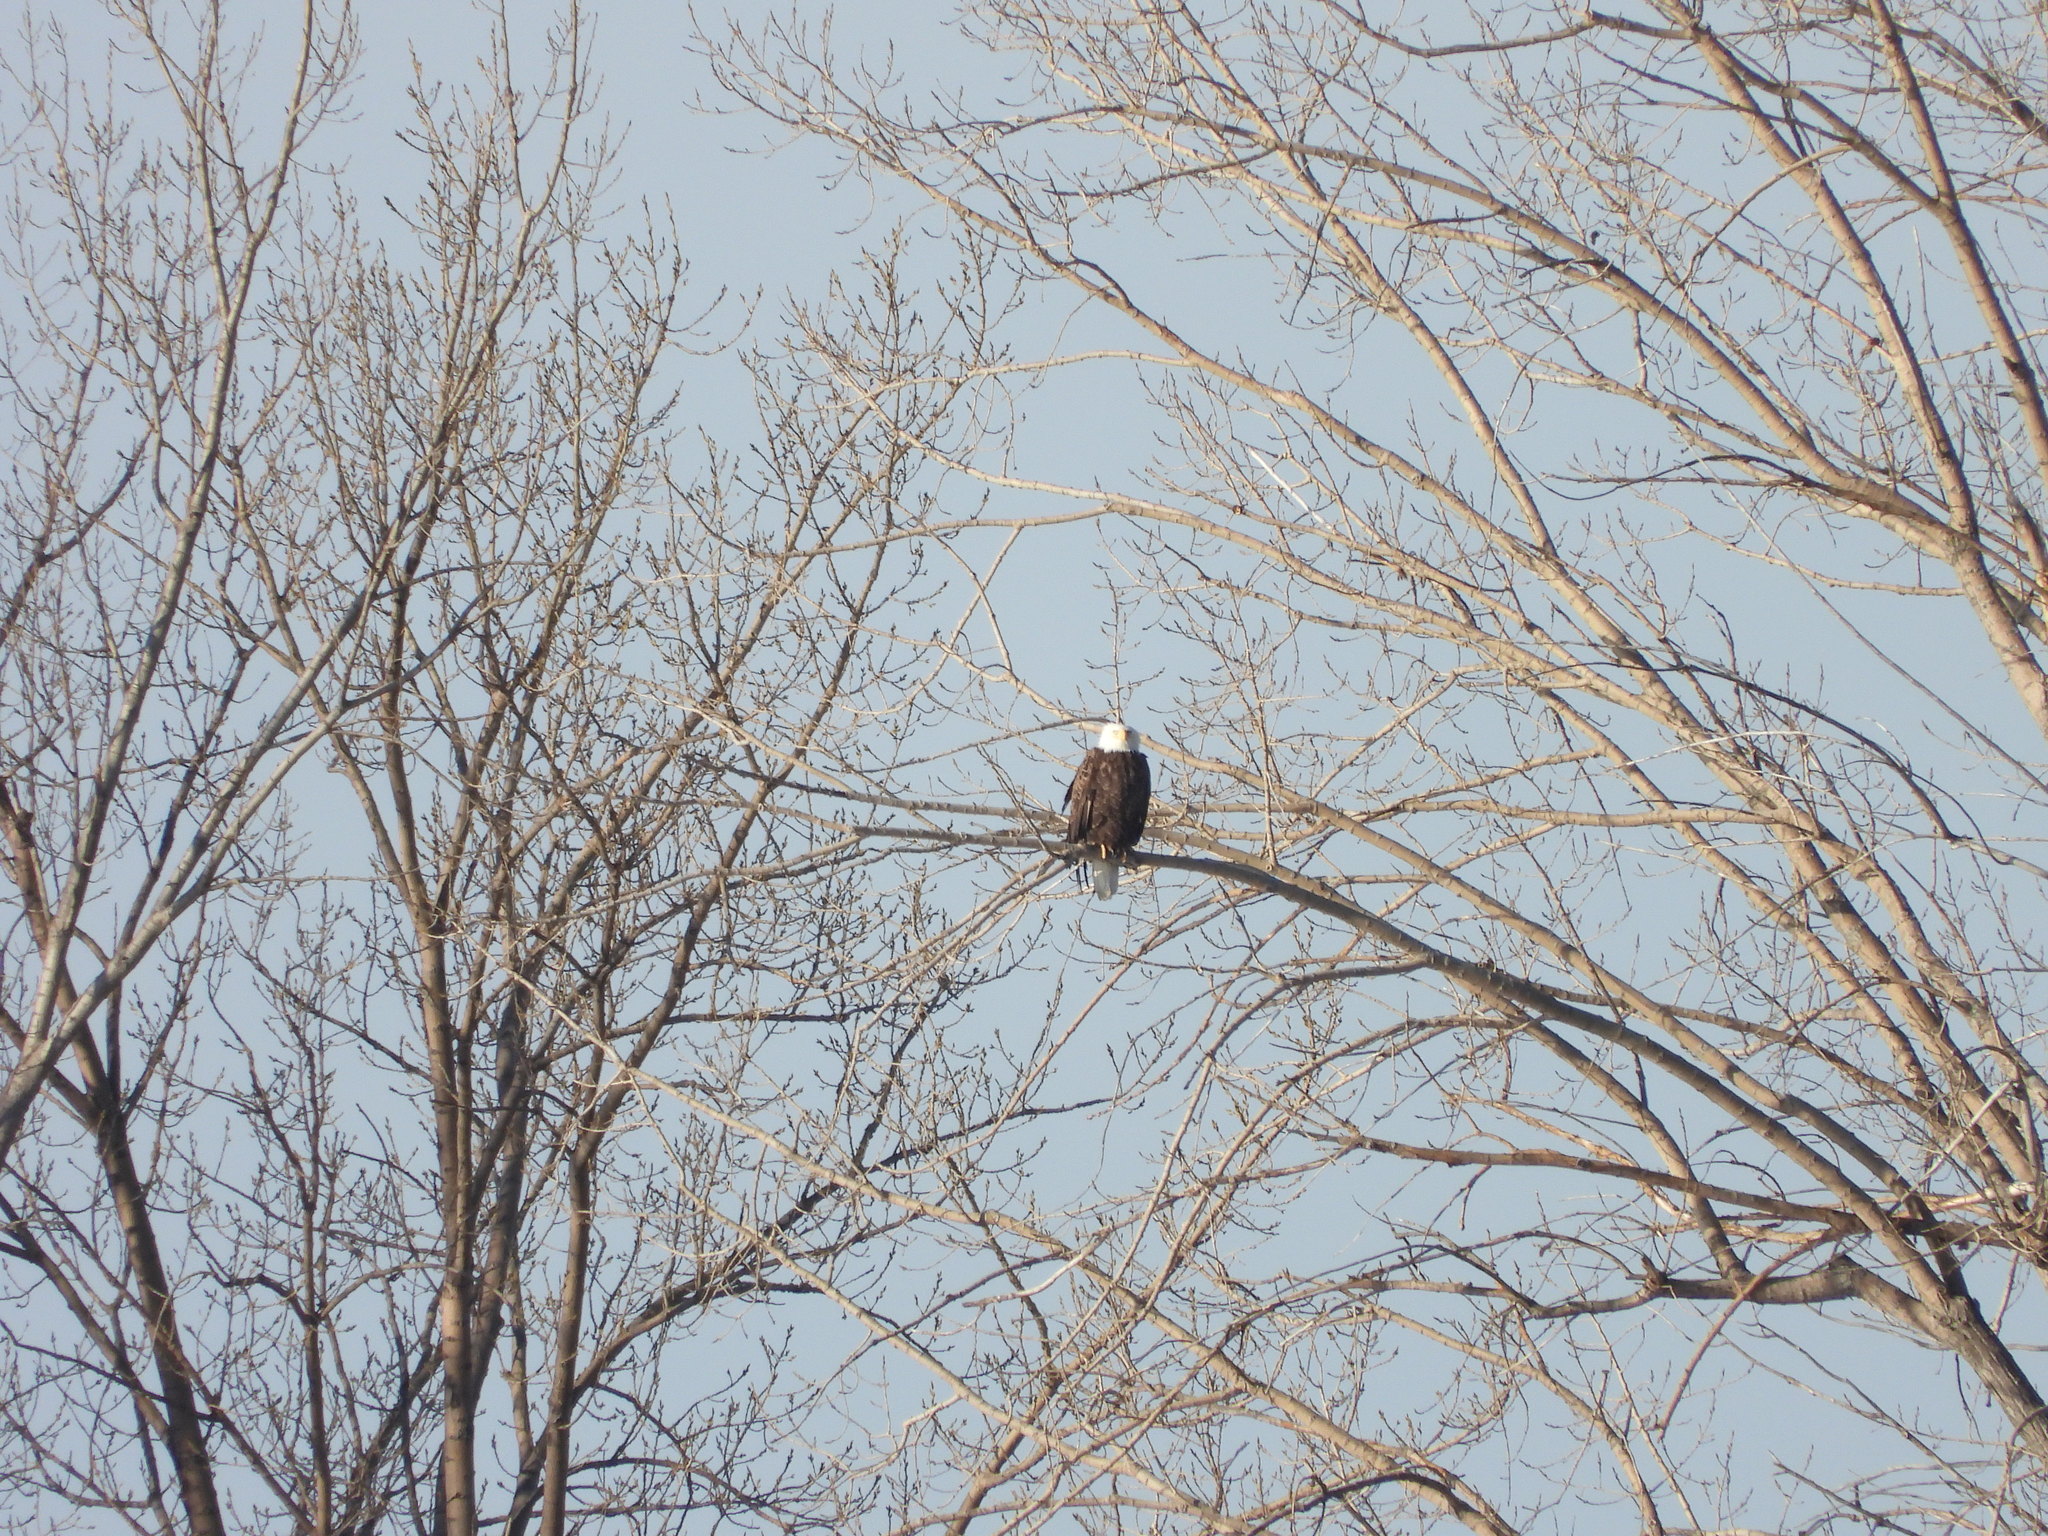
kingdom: Animalia
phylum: Chordata
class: Aves
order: Accipitriformes
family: Accipitridae
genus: Haliaeetus
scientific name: Haliaeetus leucocephalus
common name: Bald eagle
